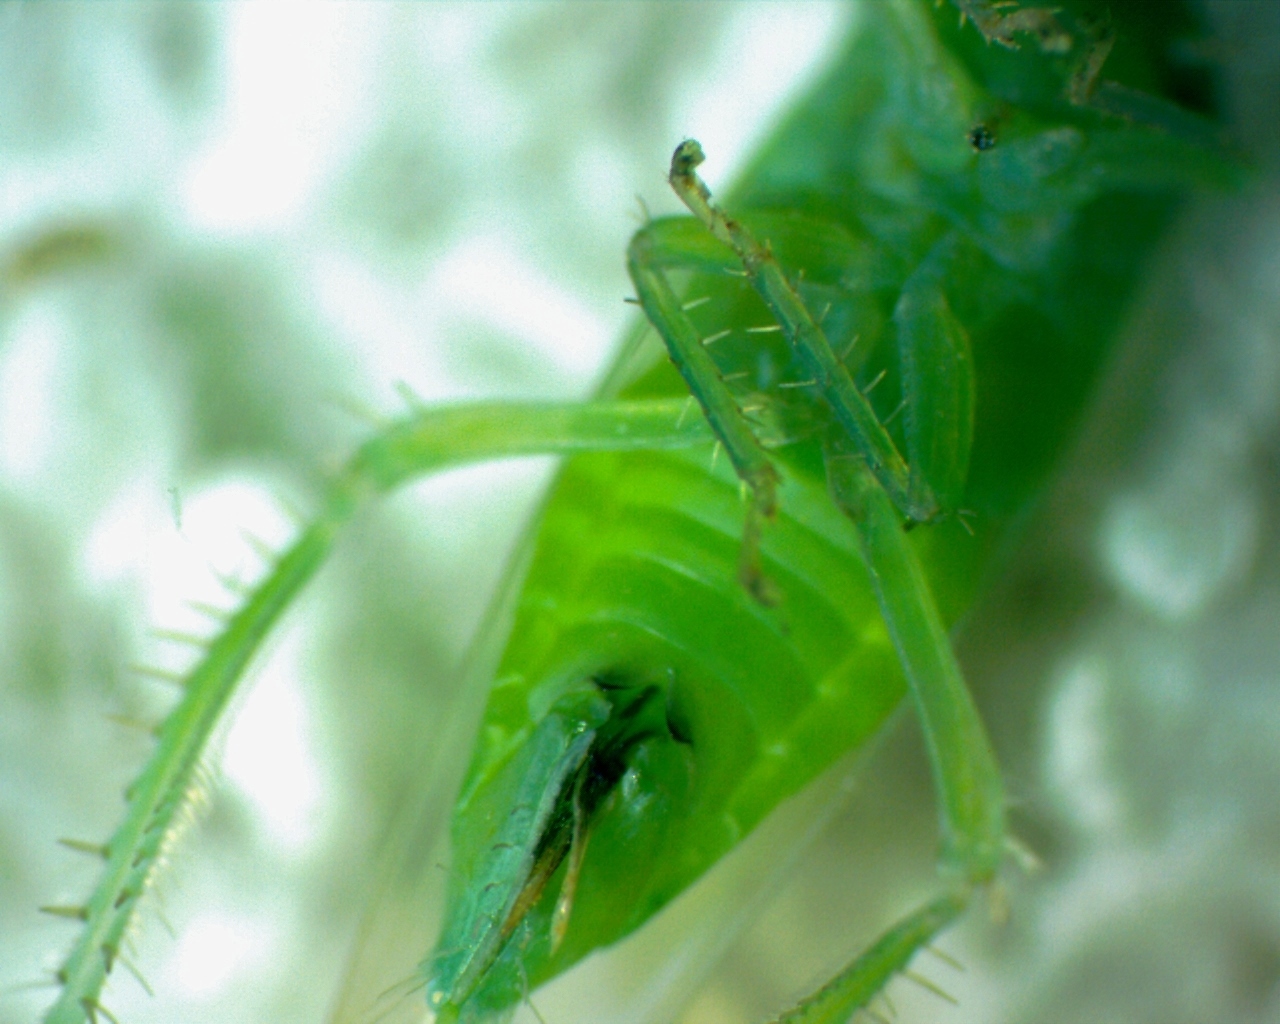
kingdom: Animalia
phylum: Arthropoda
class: Insecta
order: Hemiptera
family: Cicadellidae
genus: Chlorotettix
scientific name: Chlorotettix viridius
